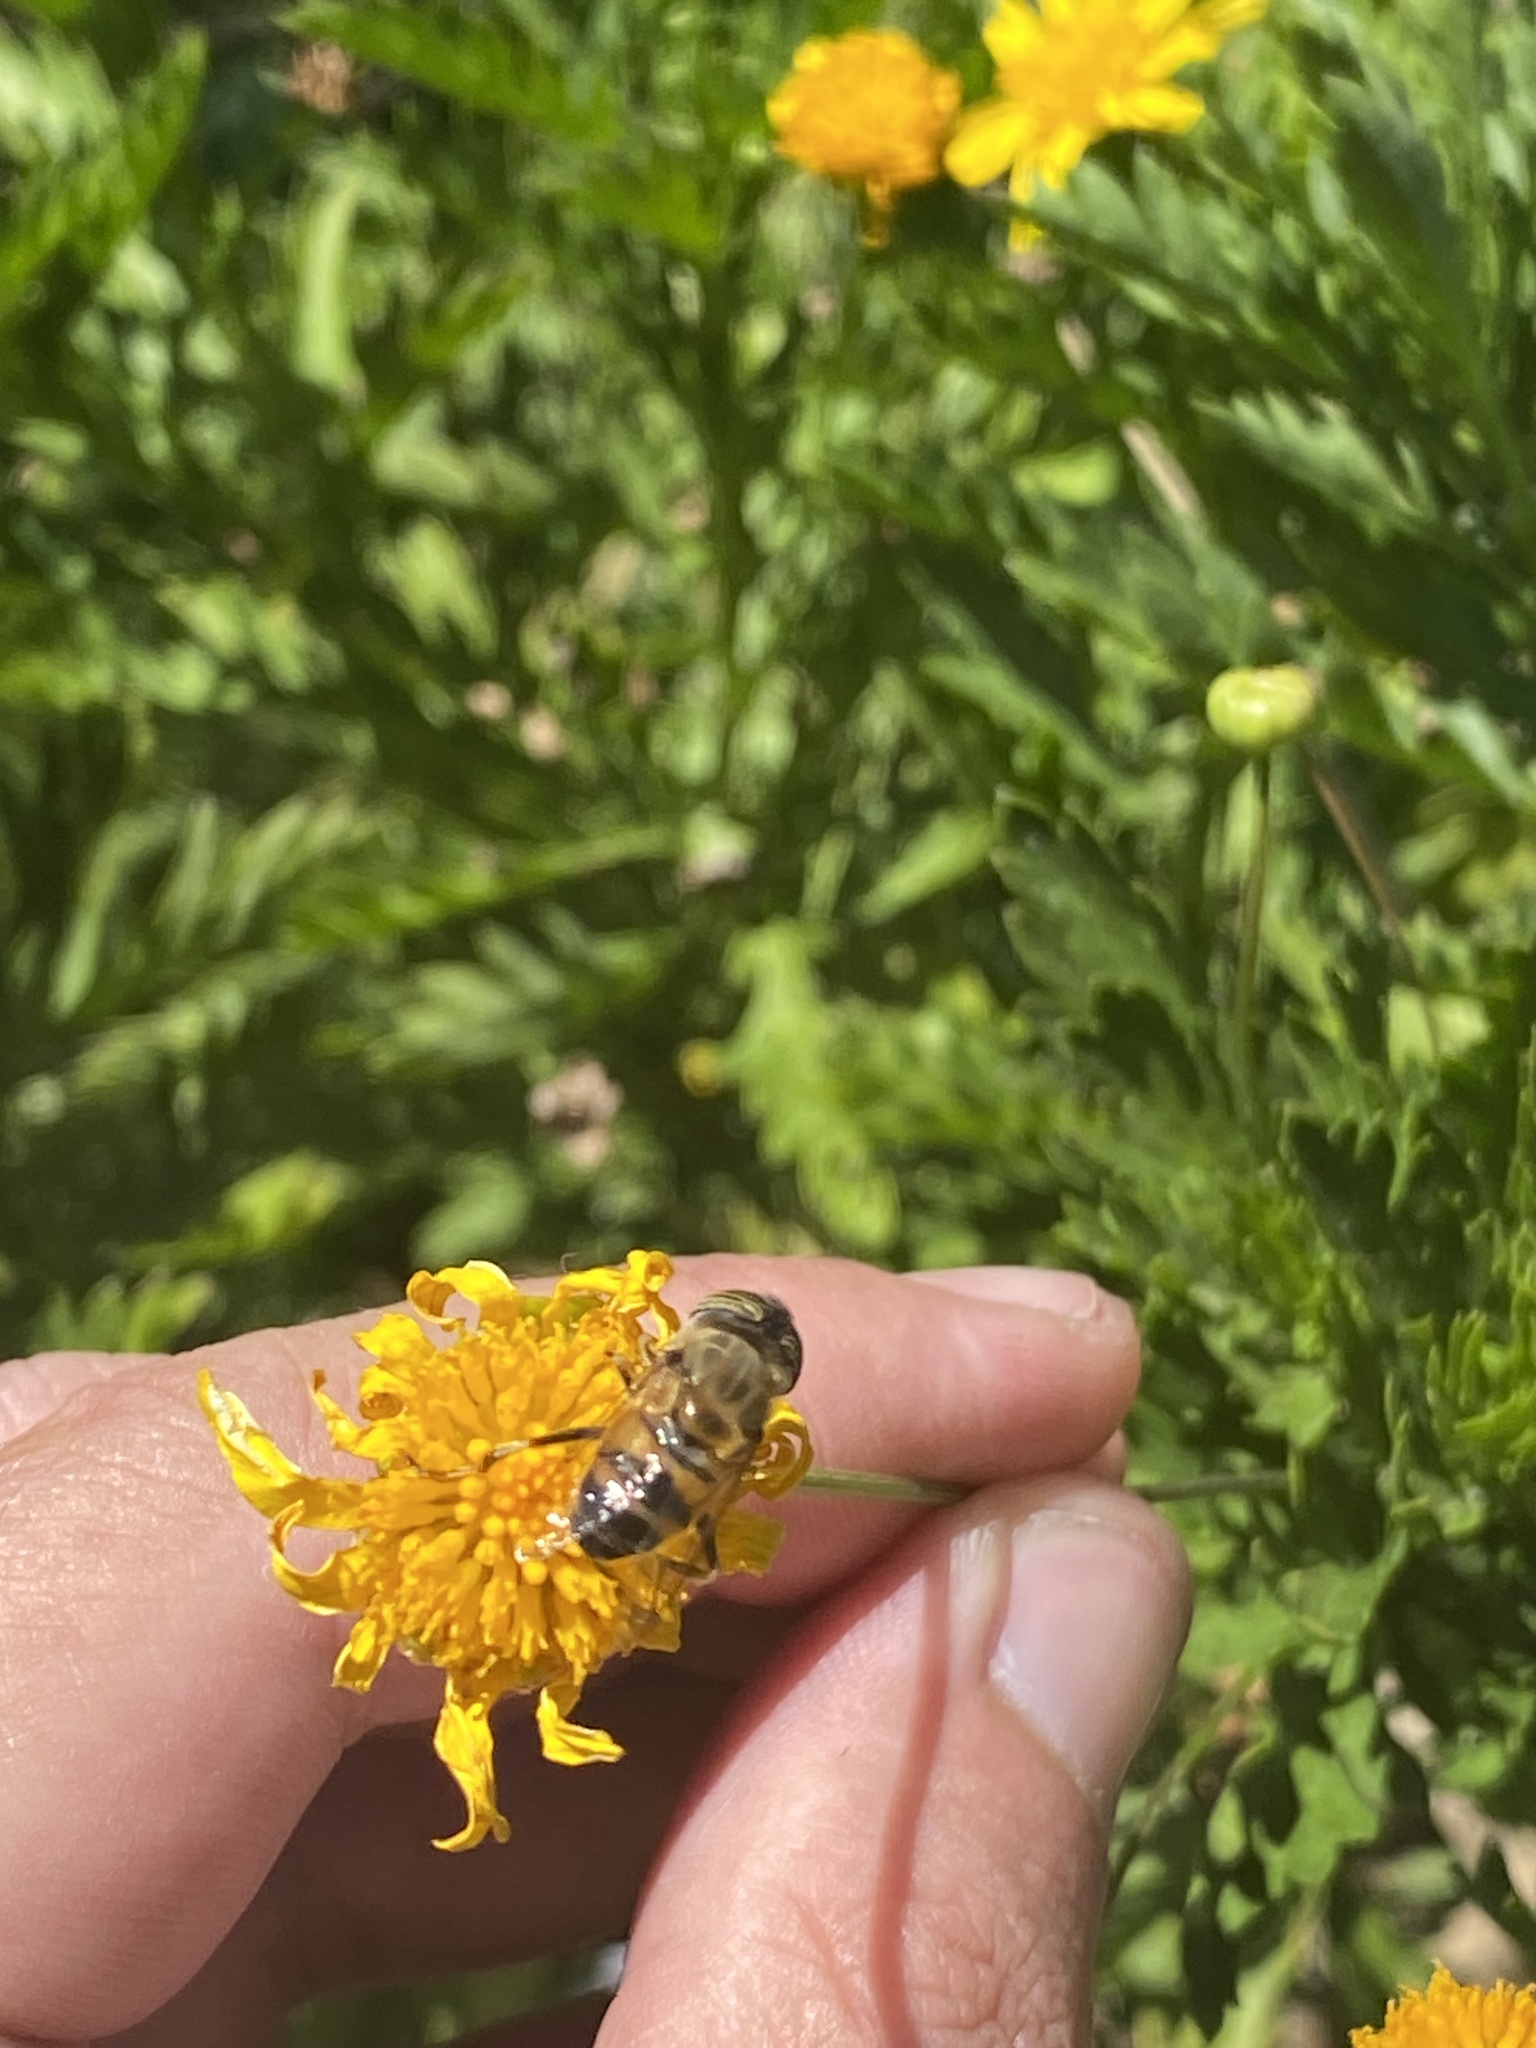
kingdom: Animalia
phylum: Arthropoda
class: Insecta
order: Diptera
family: Syrphidae
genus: Eristalinus
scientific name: Eristalinus taeniops
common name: Syrphid fly
